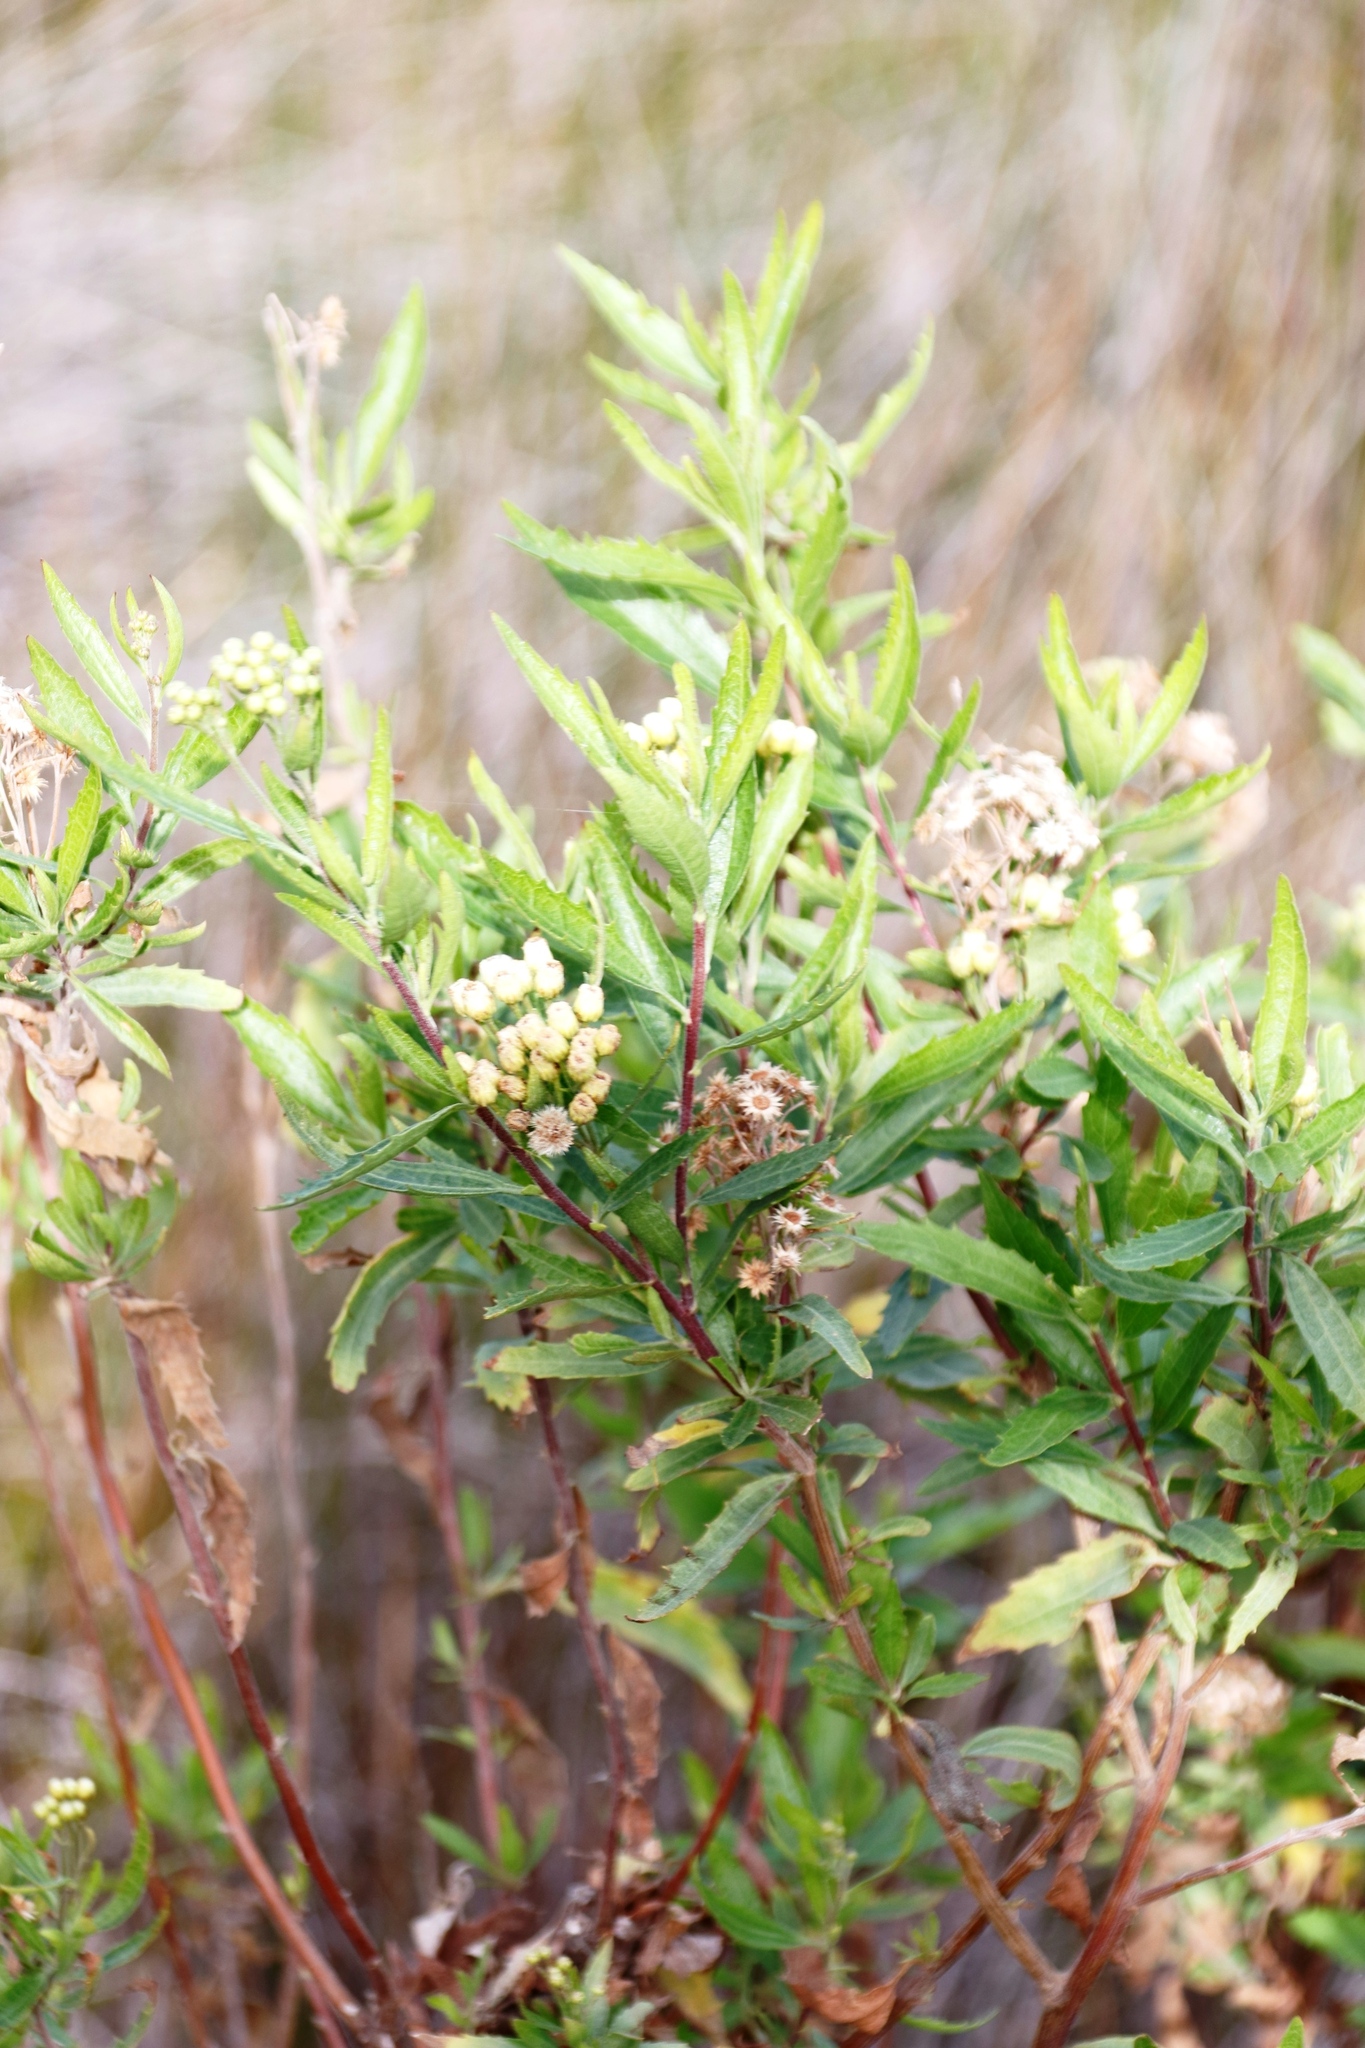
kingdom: Plantae
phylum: Tracheophyta
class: Magnoliopsida
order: Asterales
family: Asteraceae
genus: Nidorella
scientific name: Nidorella ivifolia
